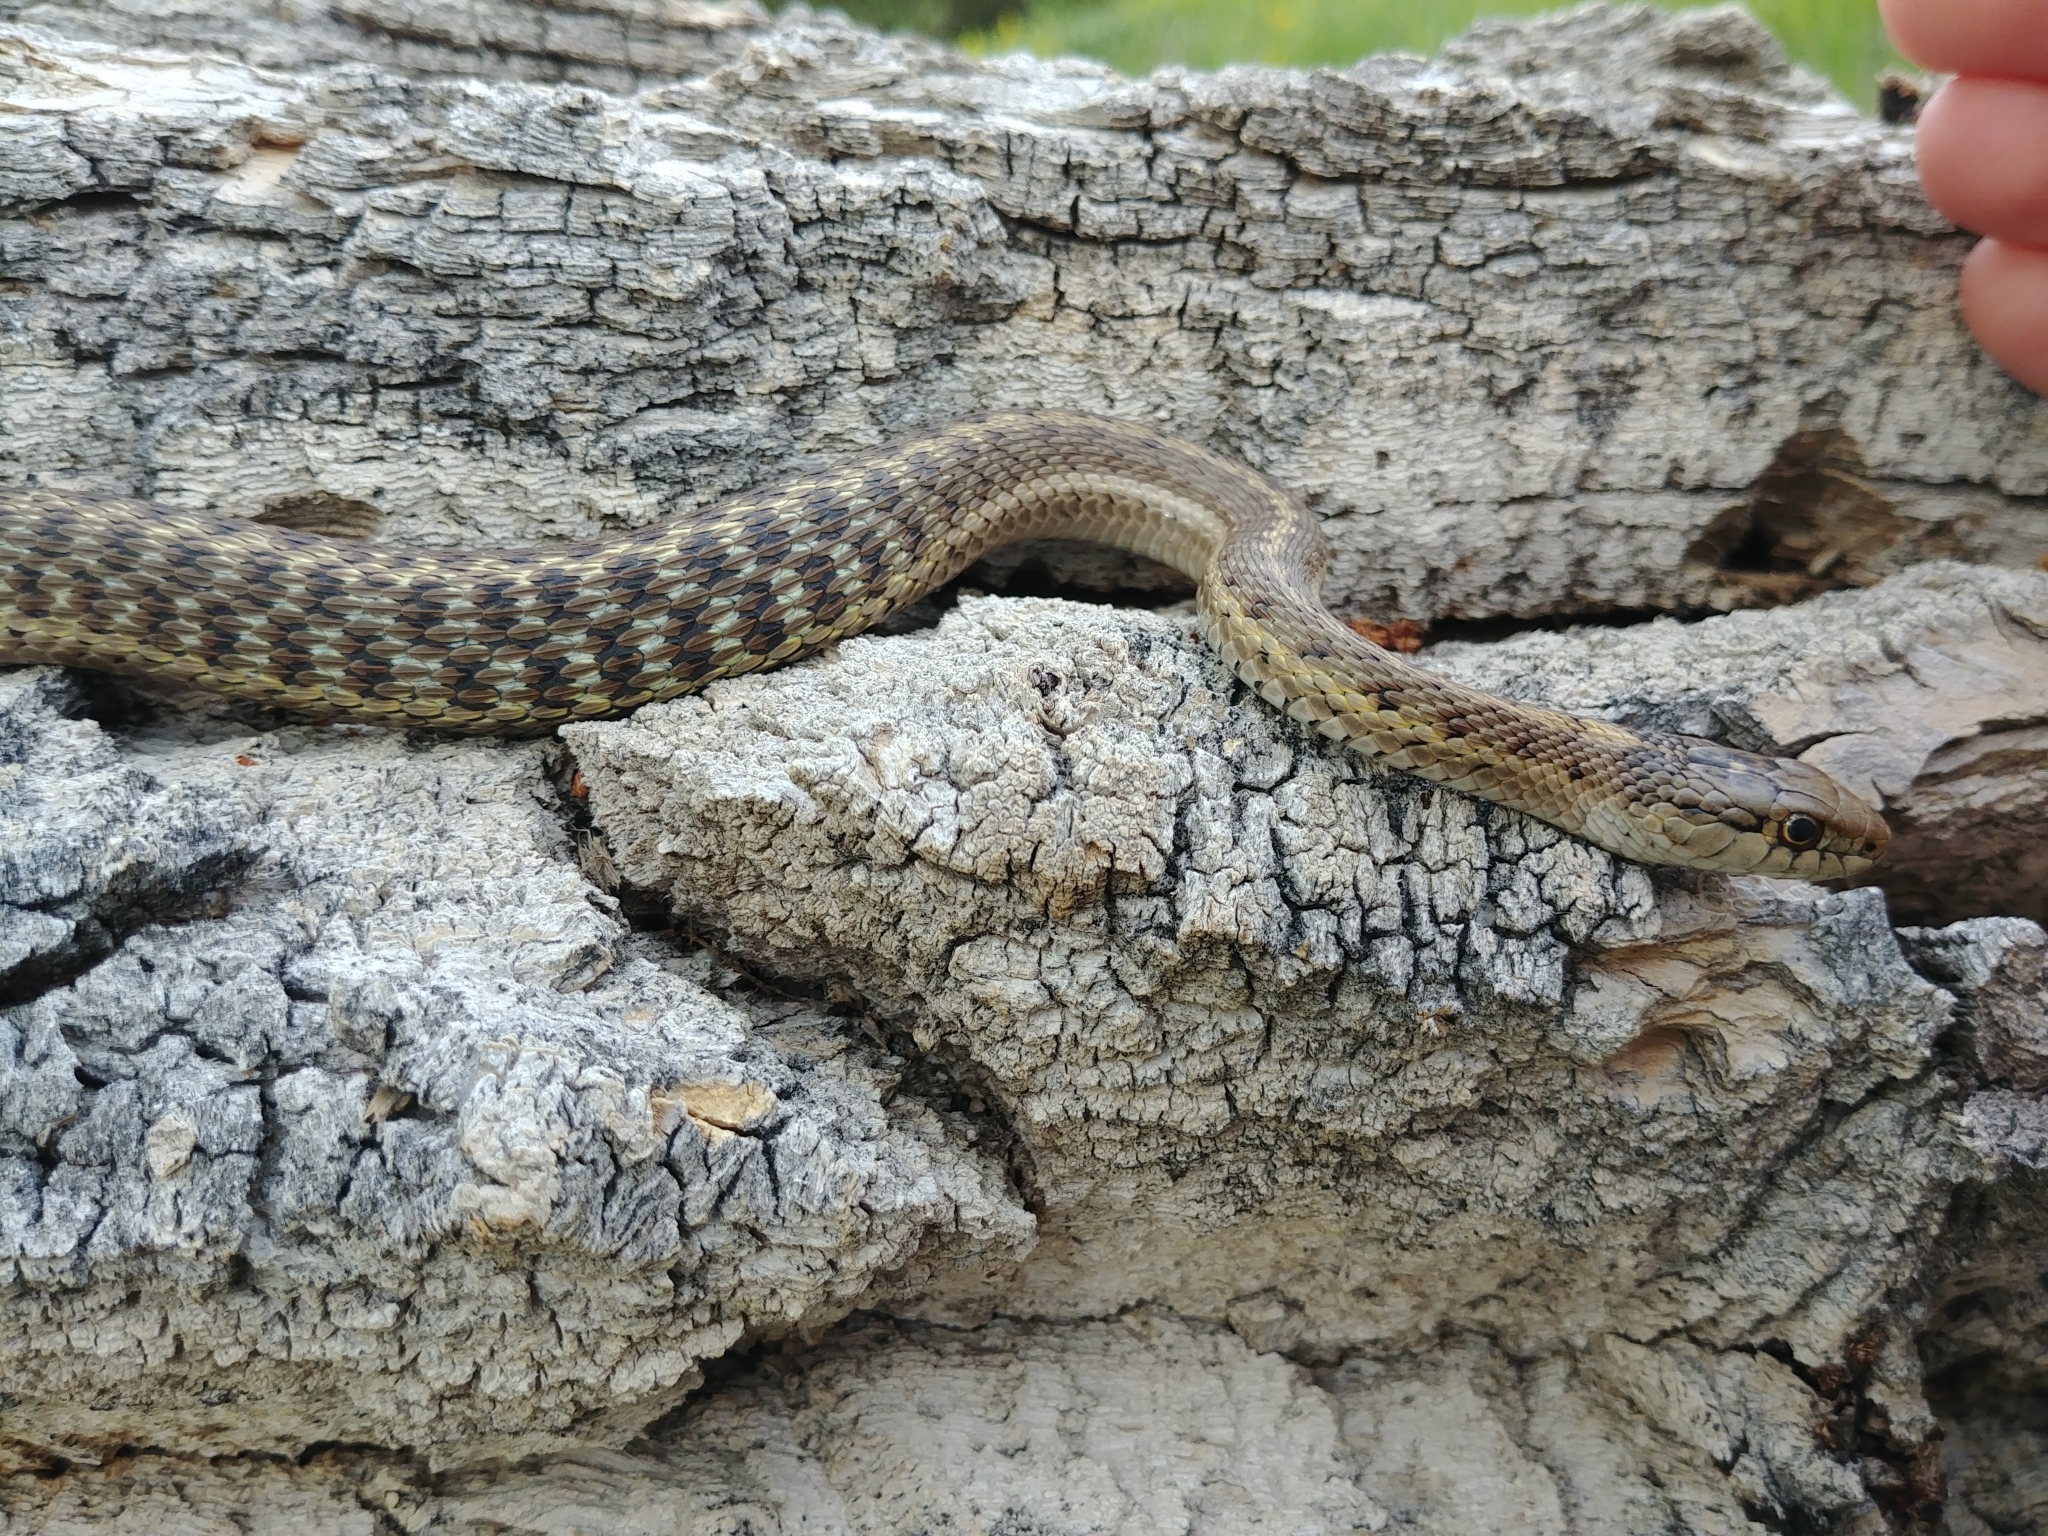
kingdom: Animalia
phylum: Chordata
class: Squamata
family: Colubridae
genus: Thamnophis
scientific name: Thamnophis elegans
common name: Western terrestrial garter snake
